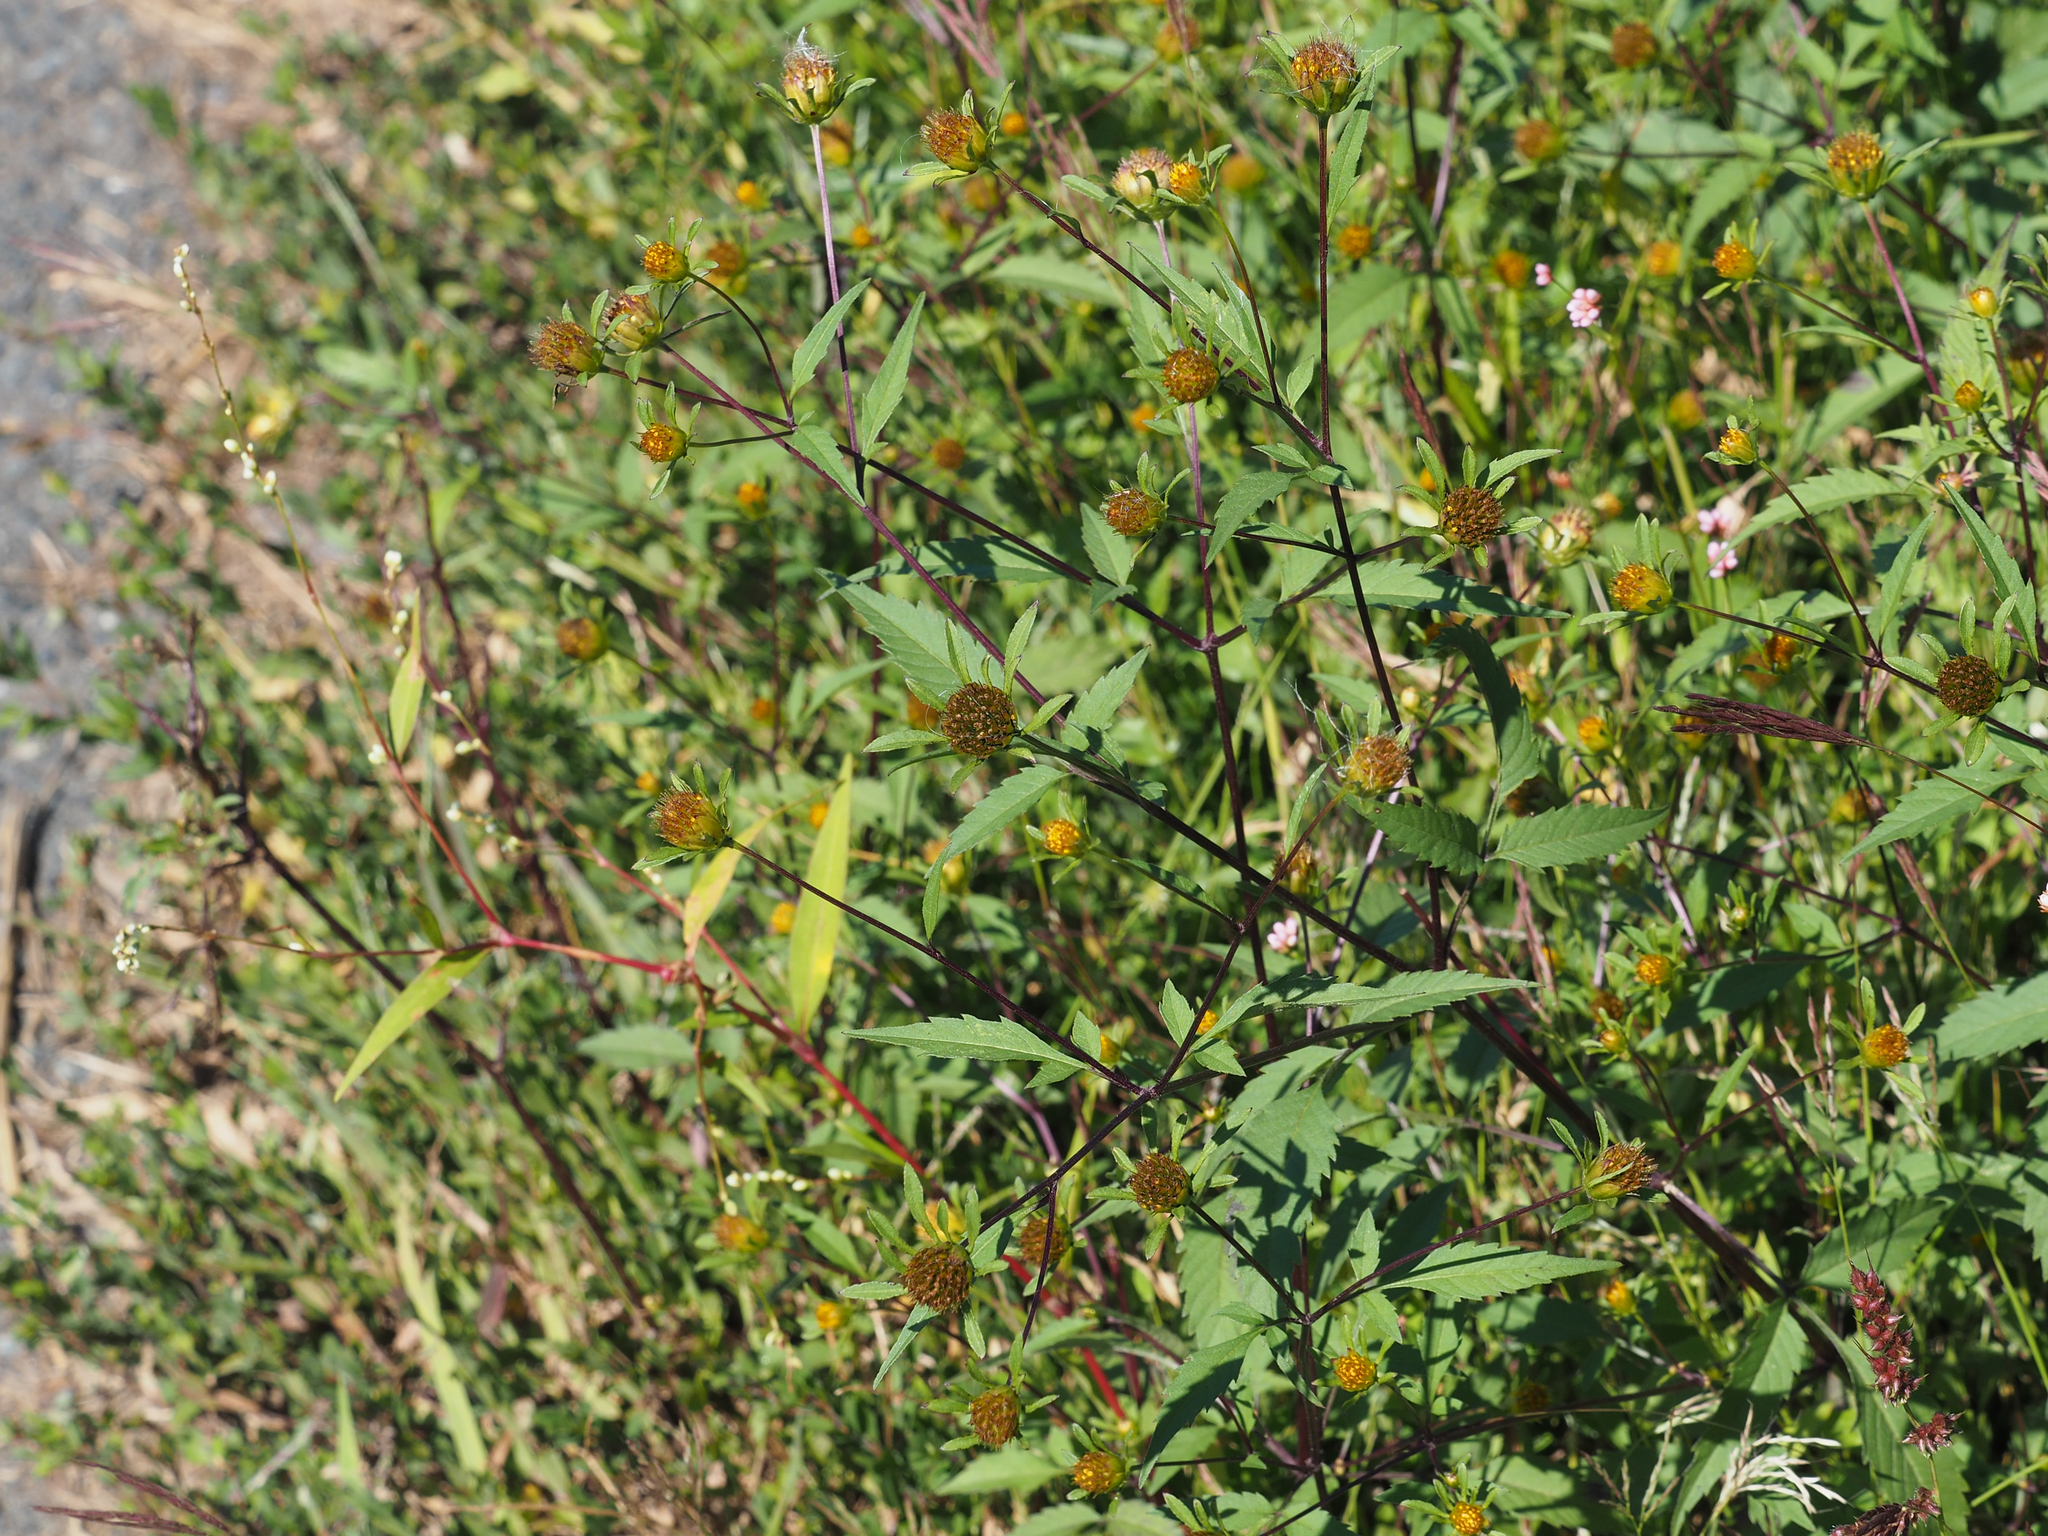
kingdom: Plantae
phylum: Tracheophyta
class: Magnoliopsida
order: Asterales
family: Asteraceae
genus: Bidens
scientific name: Bidens frondosa
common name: Beggarticks
